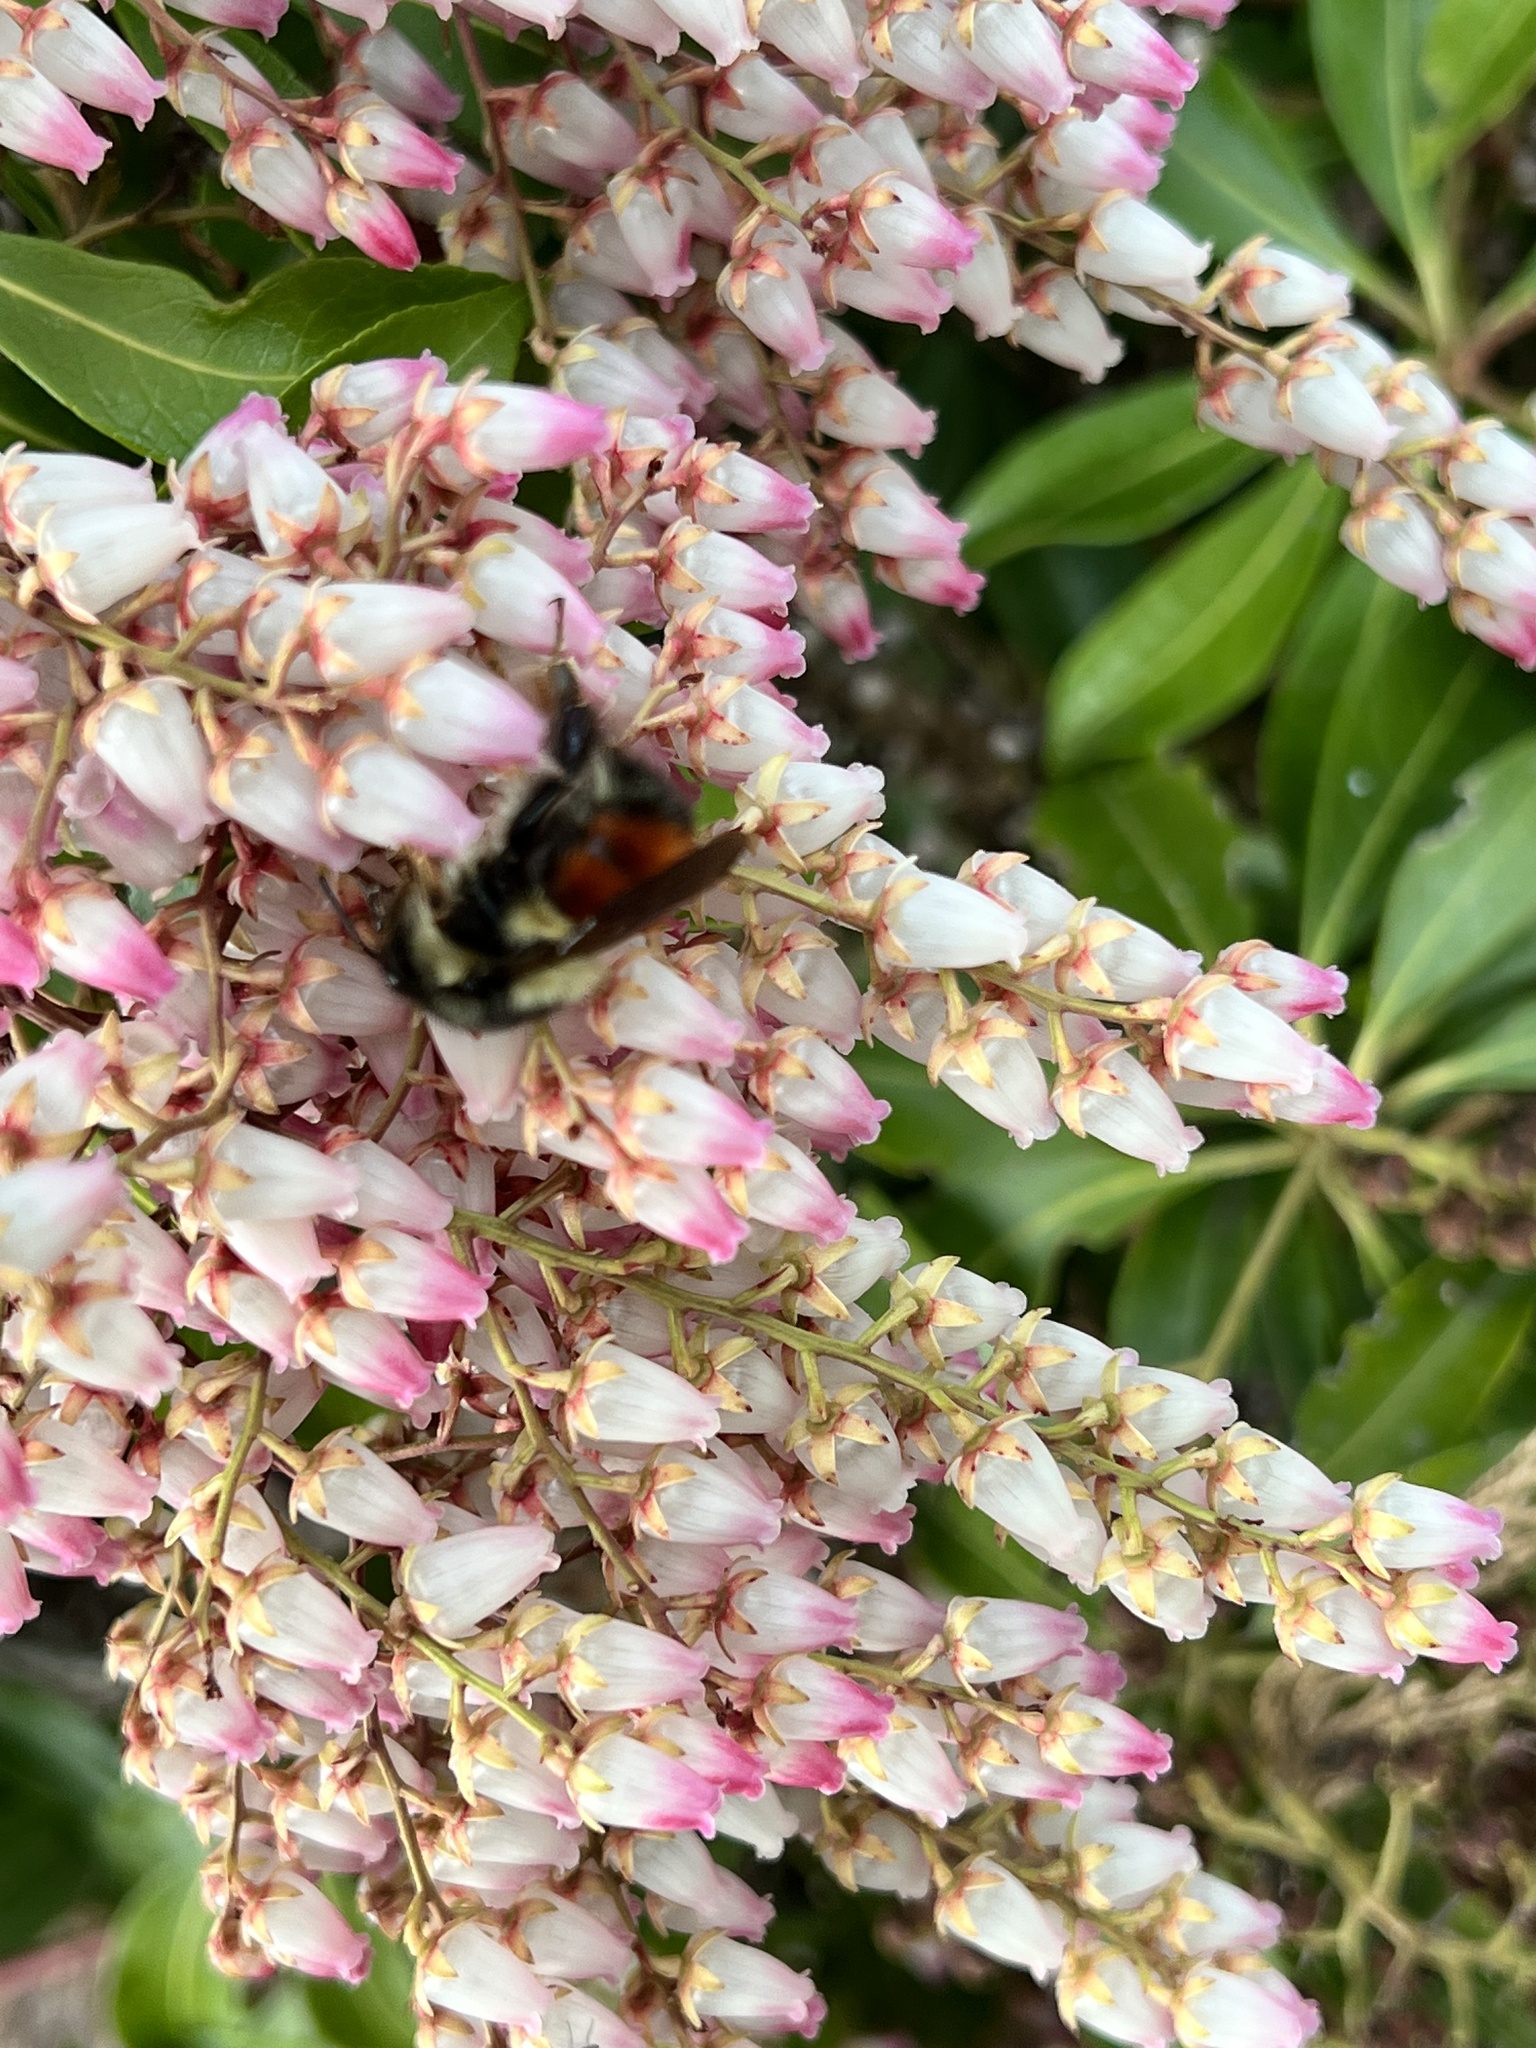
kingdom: Animalia
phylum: Arthropoda
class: Insecta
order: Hymenoptera
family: Apidae
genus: Bombus
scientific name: Bombus melanopygus
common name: Black tail bumble bee
